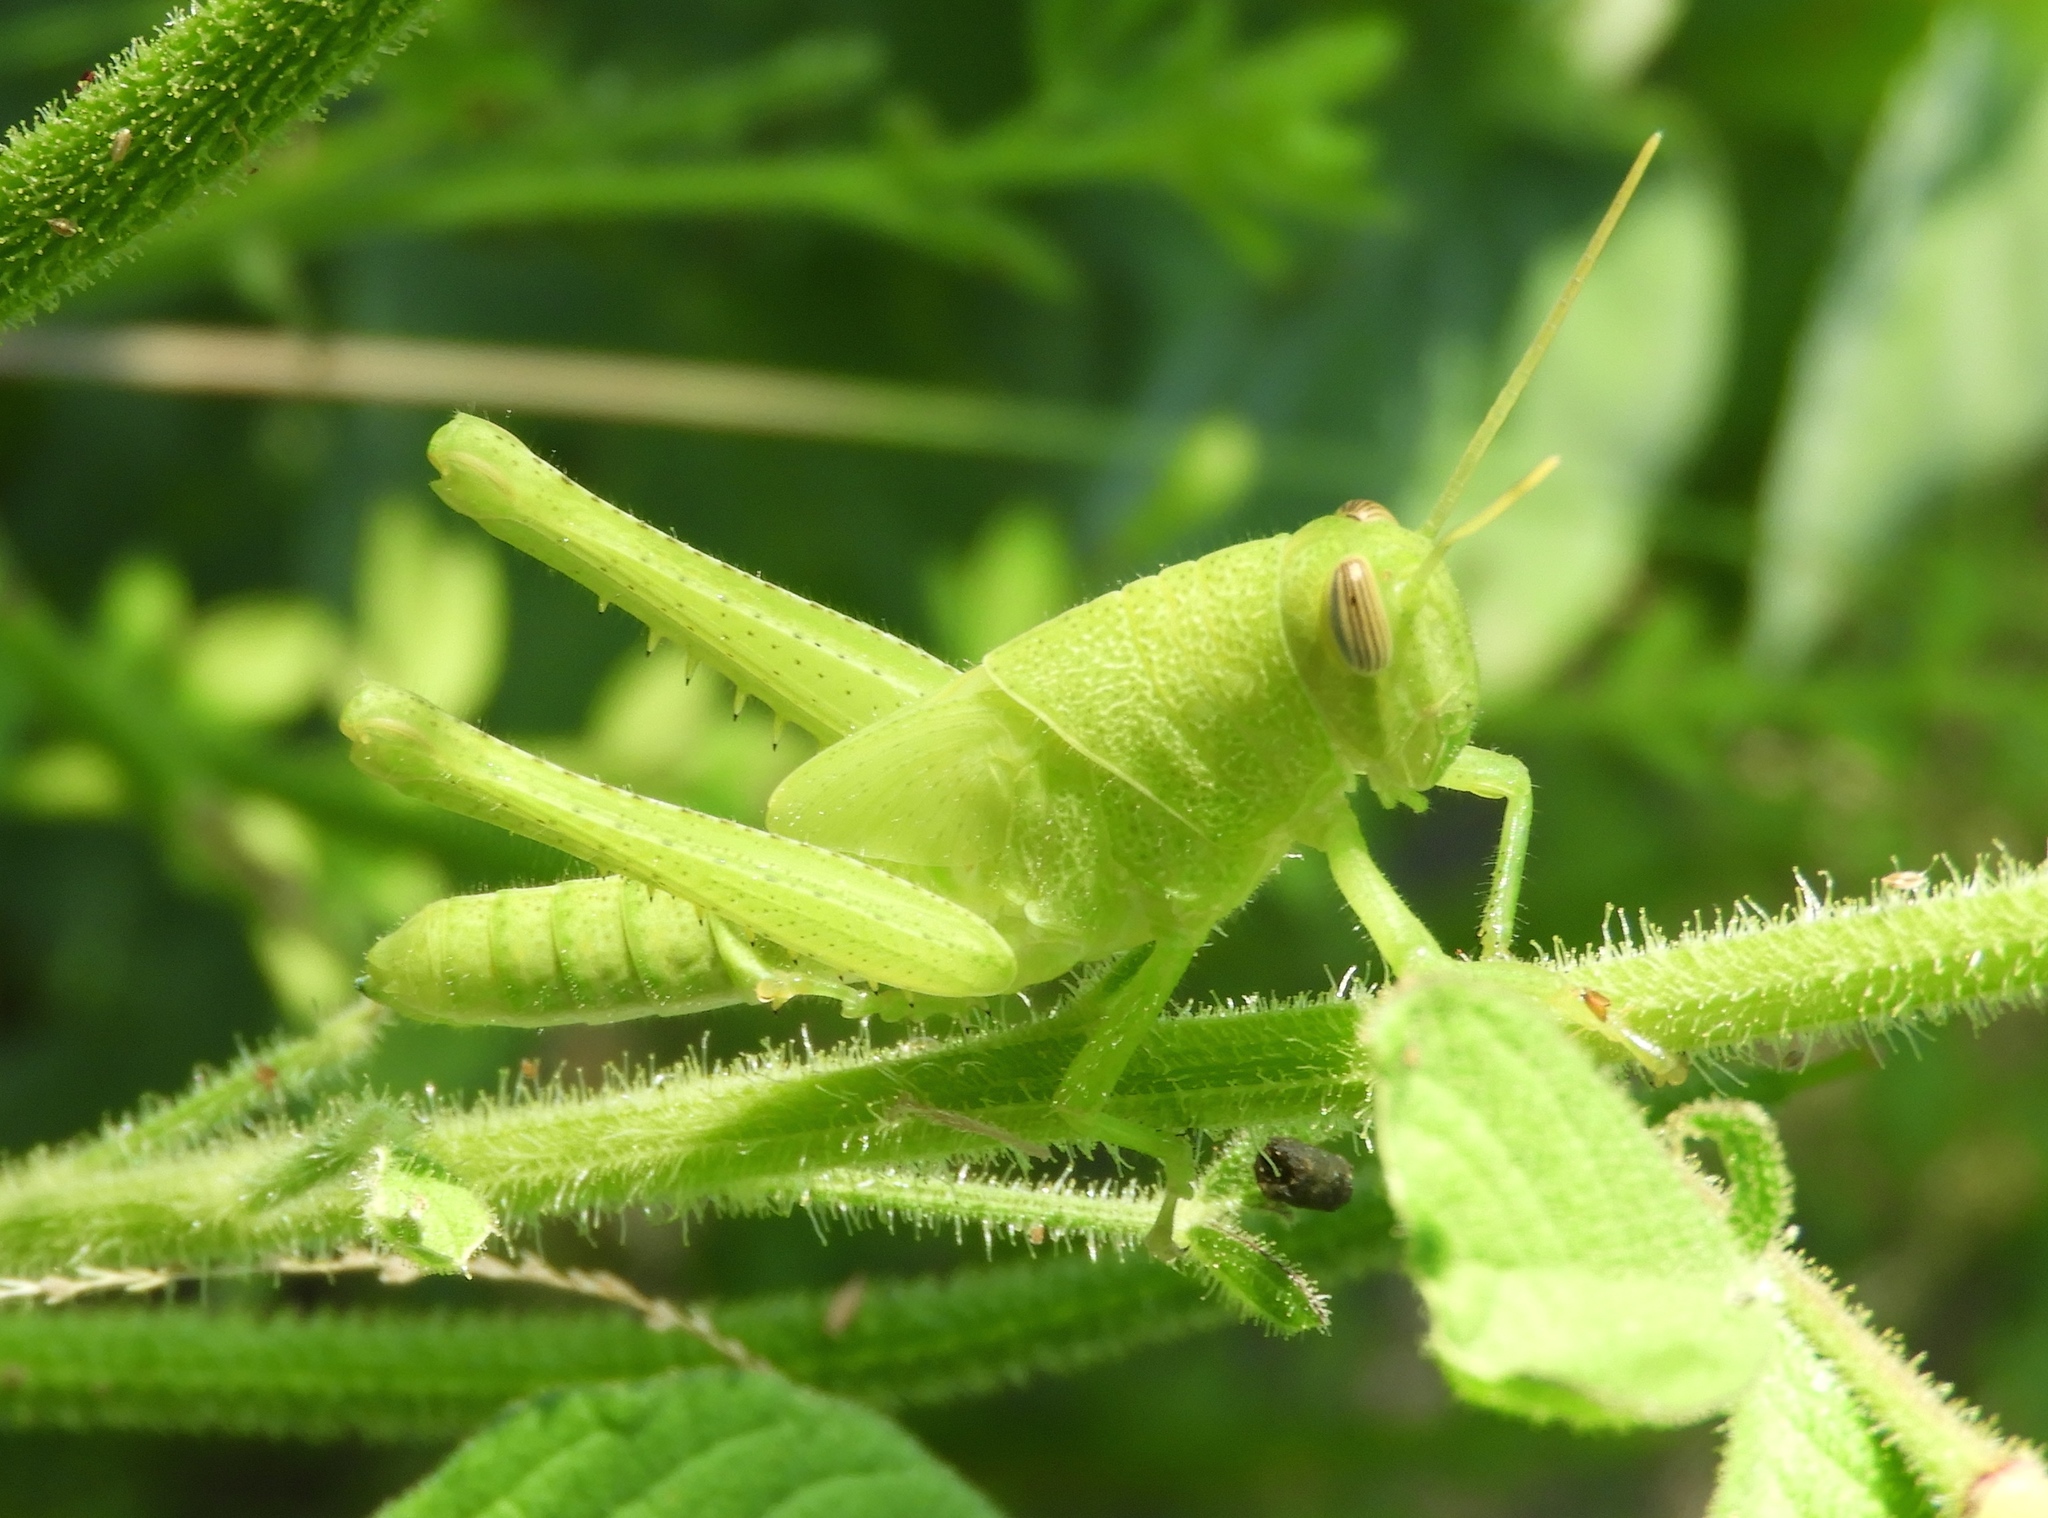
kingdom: Animalia
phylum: Arthropoda
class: Insecta
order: Orthoptera
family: Acrididae
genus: Schistocerca
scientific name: Schistocerca
